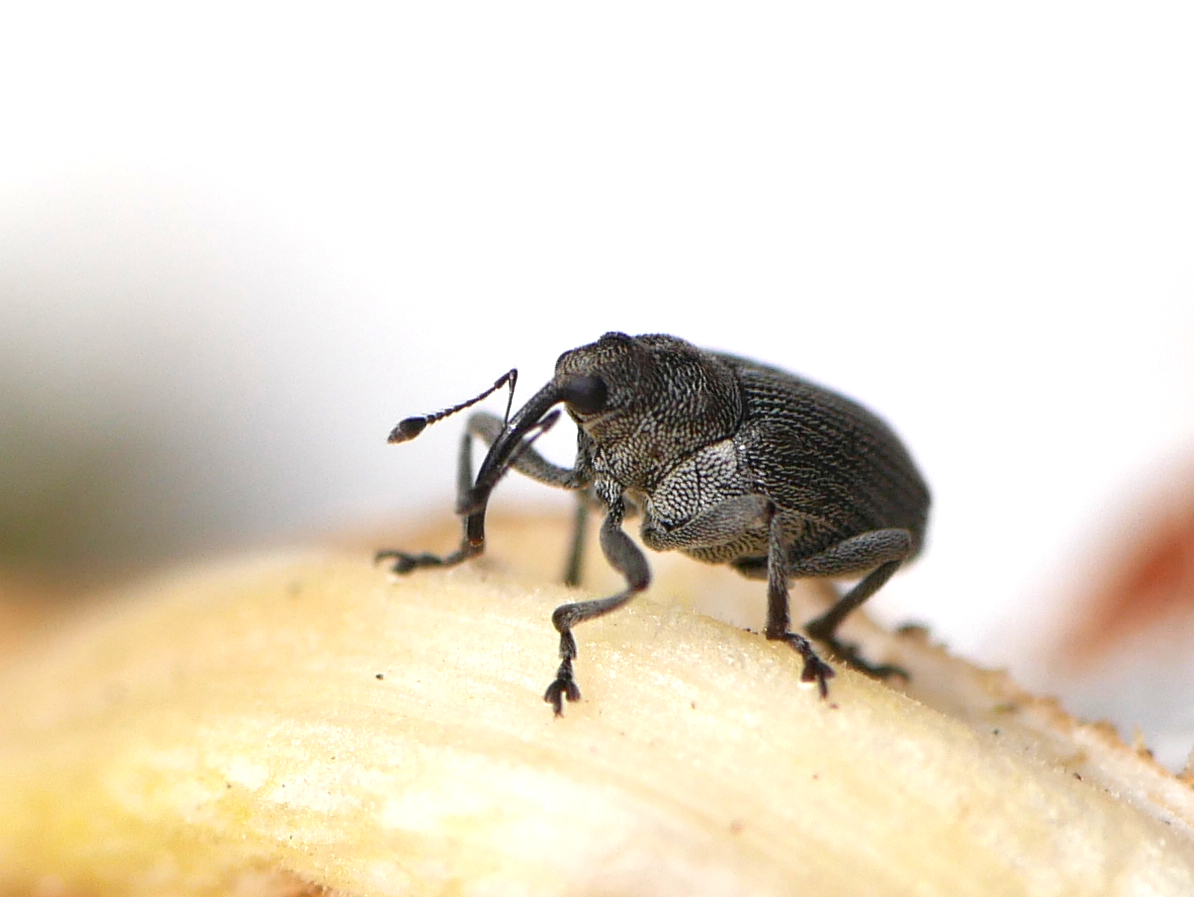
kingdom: Animalia
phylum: Arthropoda
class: Insecta
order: Coleoptera
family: Curculionidae
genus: Ceutorhynchus
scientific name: Ceutorhynchus obstrictus
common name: Cabbage seed weevil
